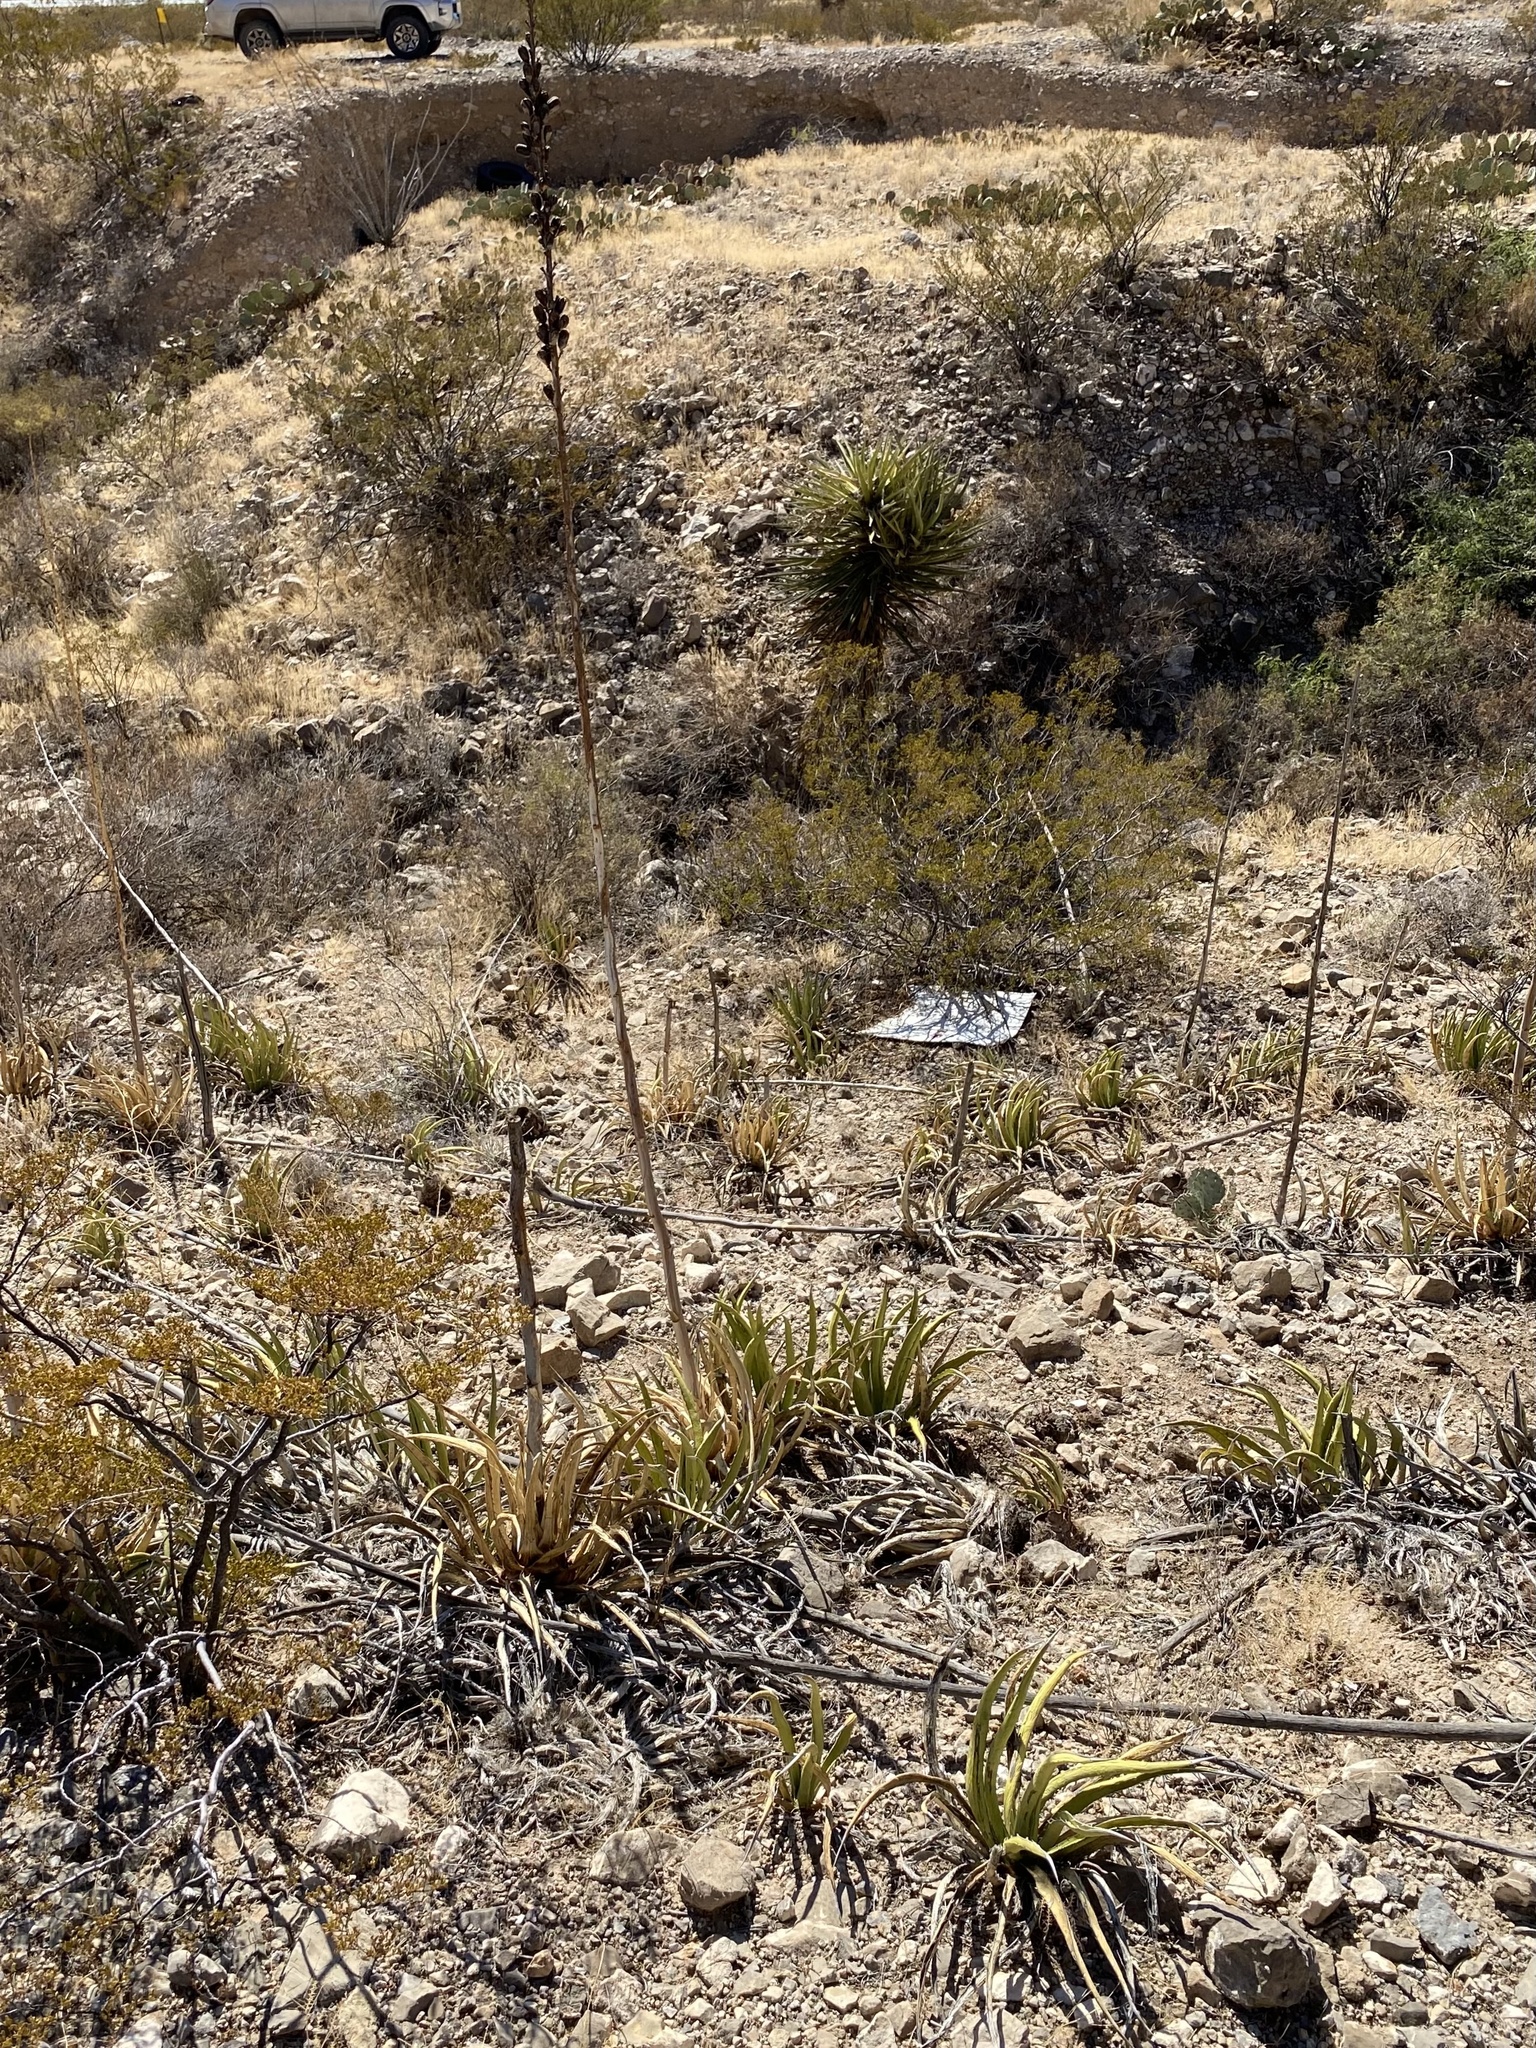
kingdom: Plantae
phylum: Tracheophyta
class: Liliopsida
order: Asparagales
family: Asparagaceae
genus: Agave
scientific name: Agave lechuguilla
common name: Lecheguilla agave
